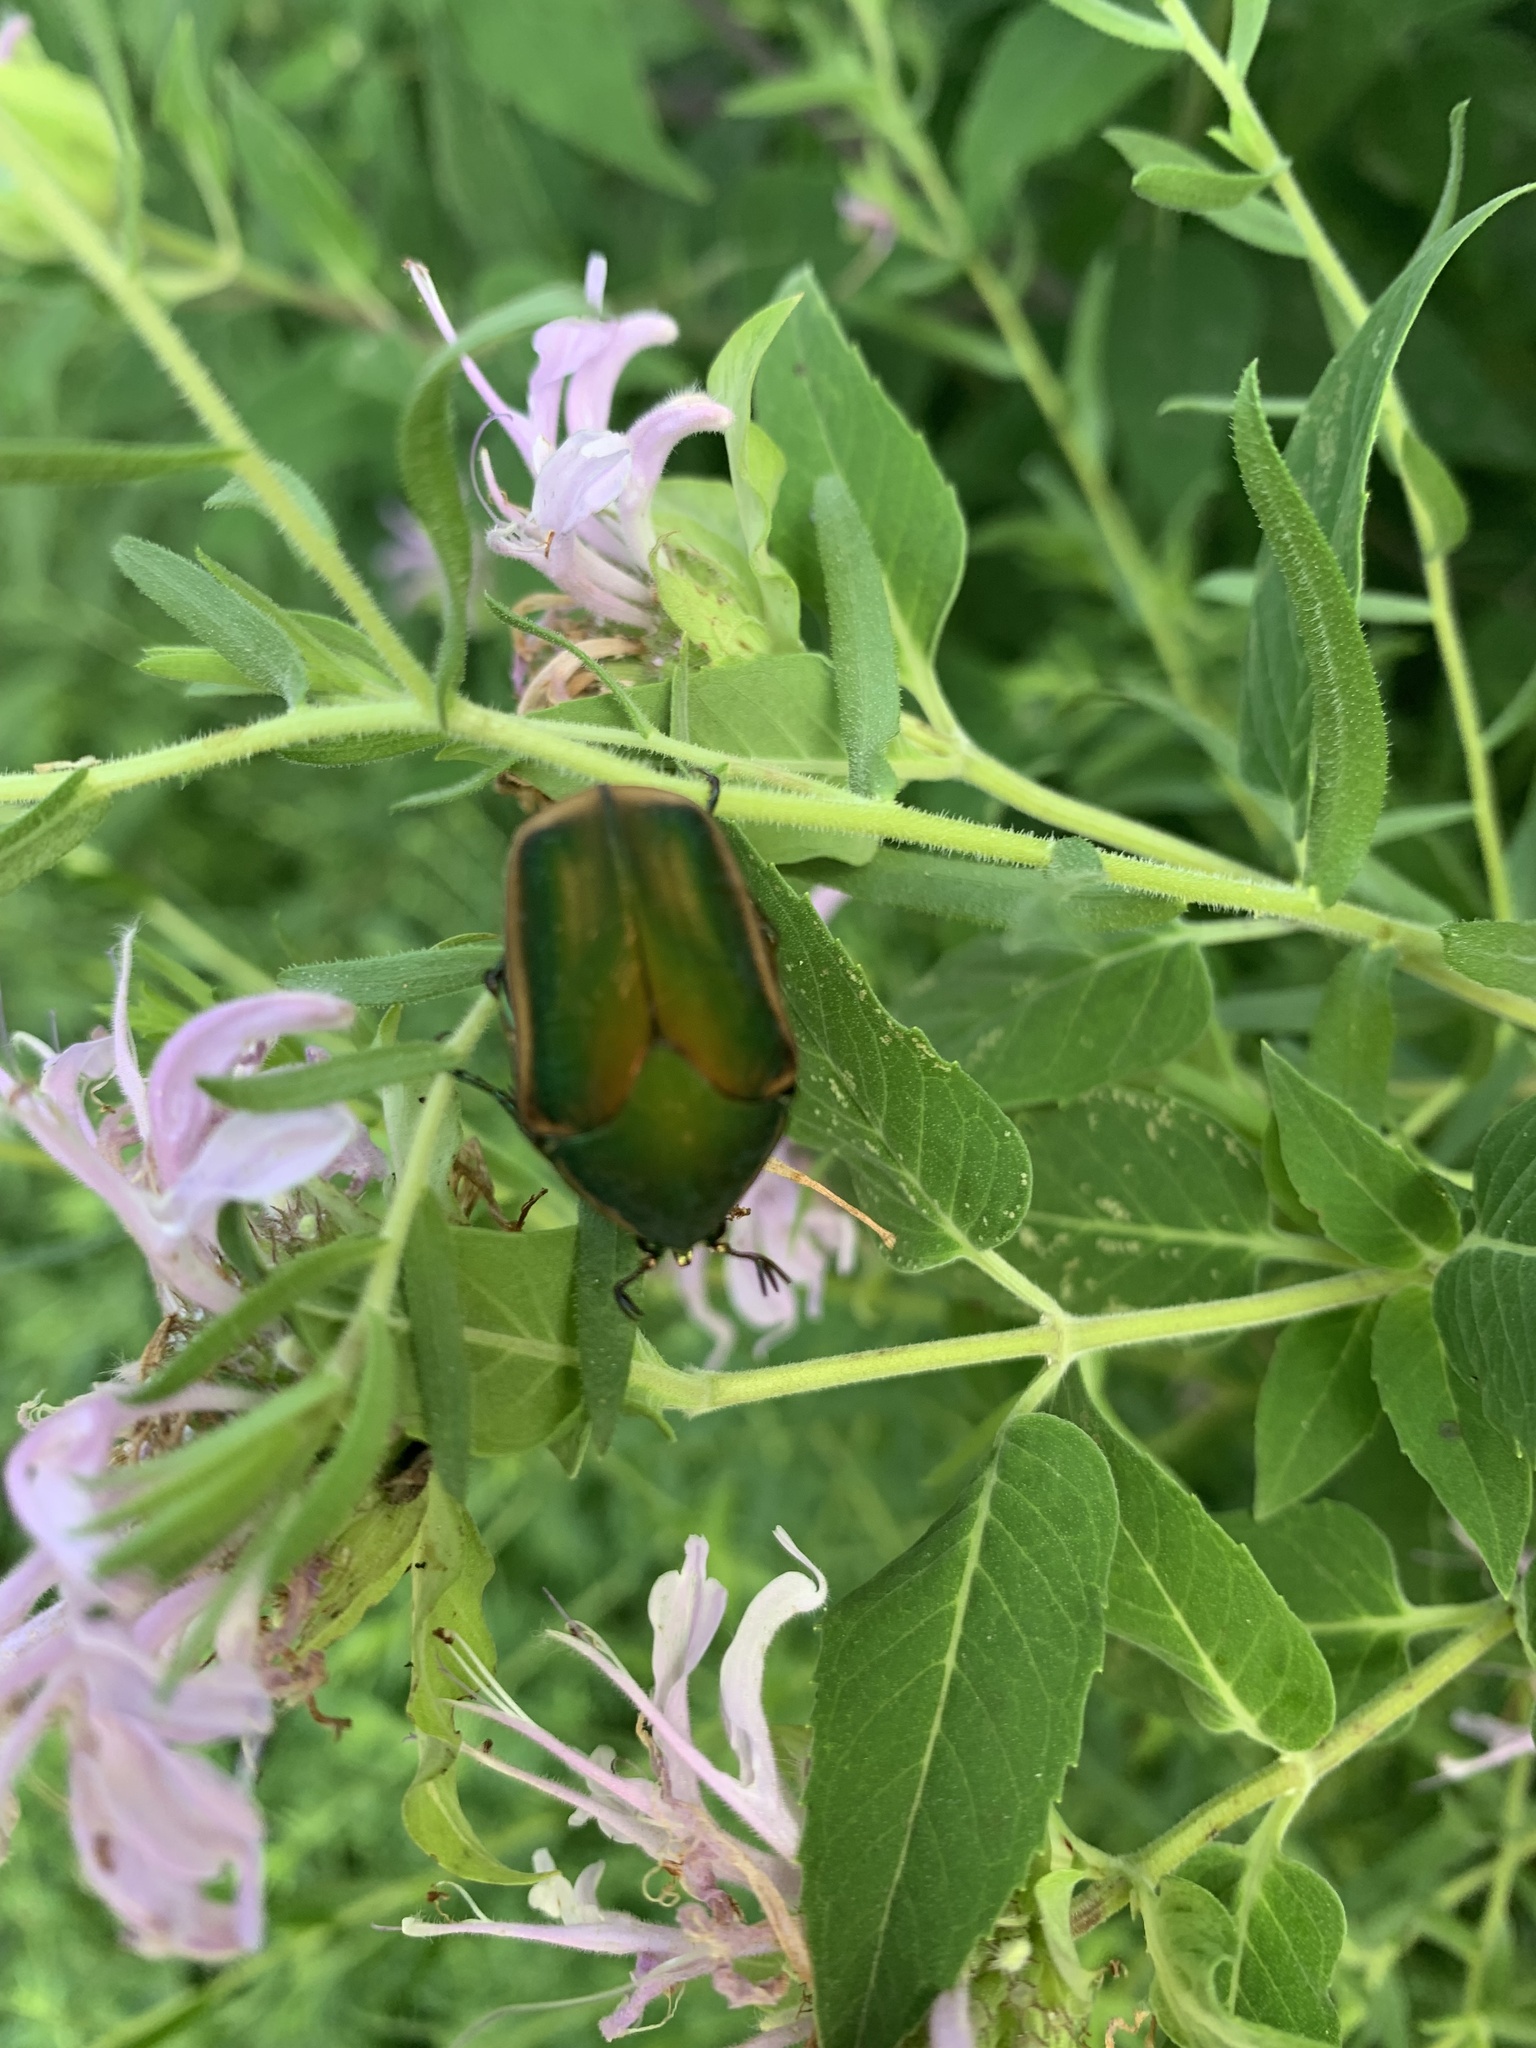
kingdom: Animalia
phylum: Arthropoda
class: Insecta
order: Coleoptera
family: Scarabaeidae
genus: Cotinis
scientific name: Cotinis nitida
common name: Common green june beetle
